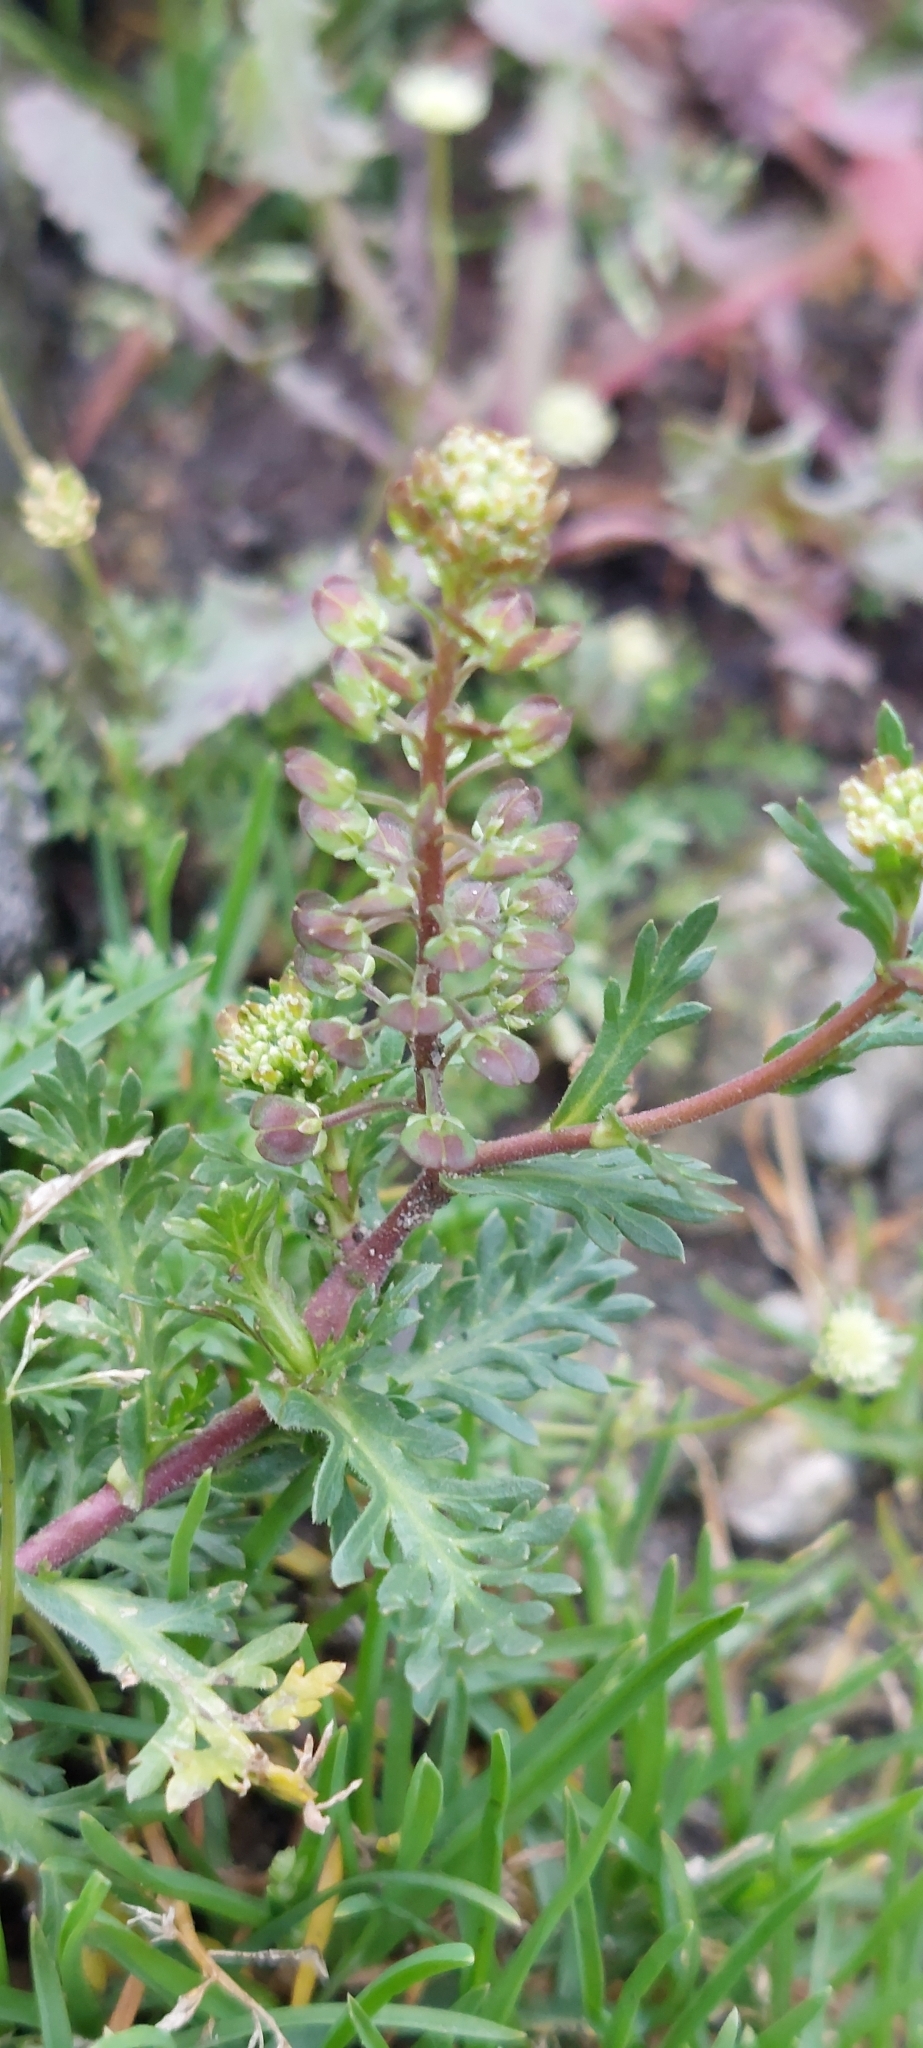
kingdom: Plantae
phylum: Tracheophyta
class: Magnoliopsida
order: Brassicales
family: Brassicaceae
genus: Lepidium
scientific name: Lepidium bipinnatifidum
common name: Wayside pepperwort
